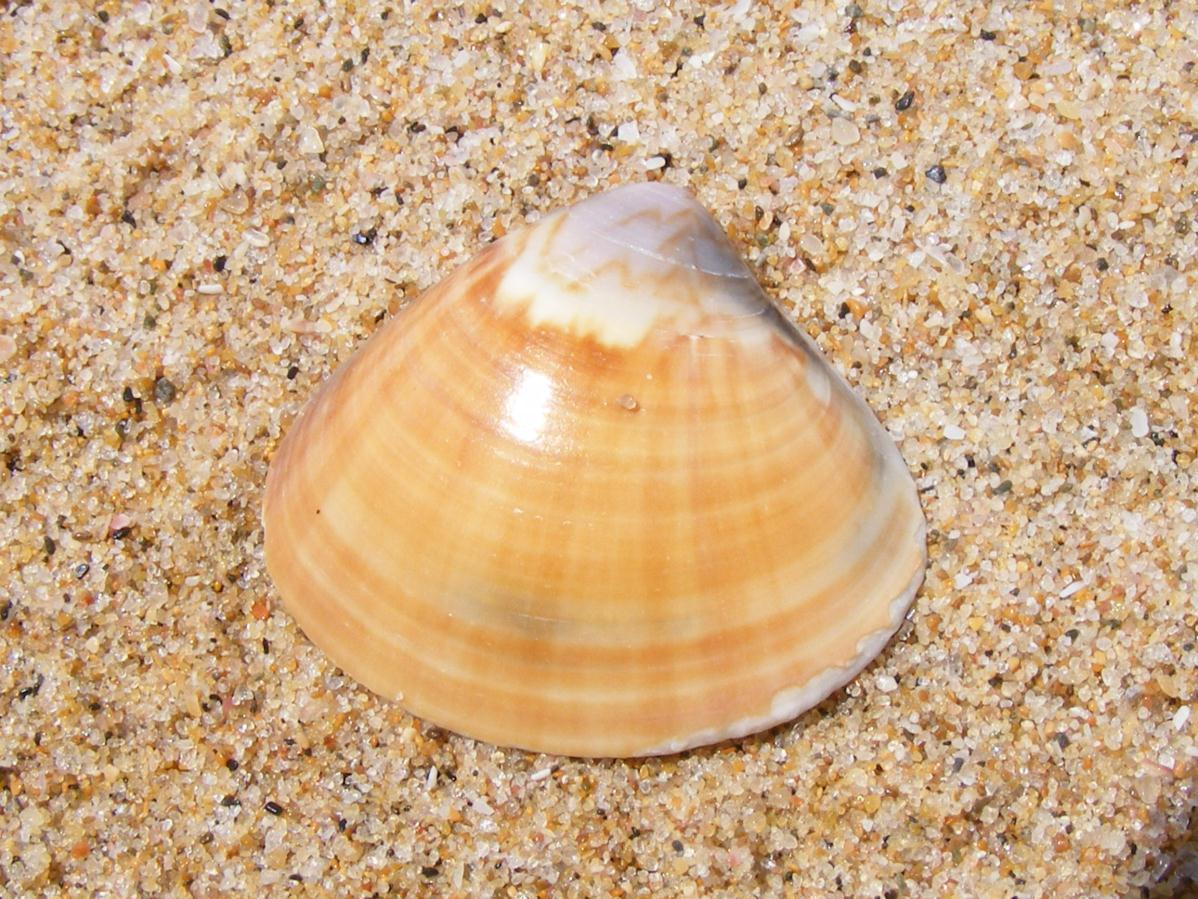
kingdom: Animalia
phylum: Mollusca
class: Bivalvia
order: Venerida
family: Veneridae
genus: Tivela
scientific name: Tivela natalensis
